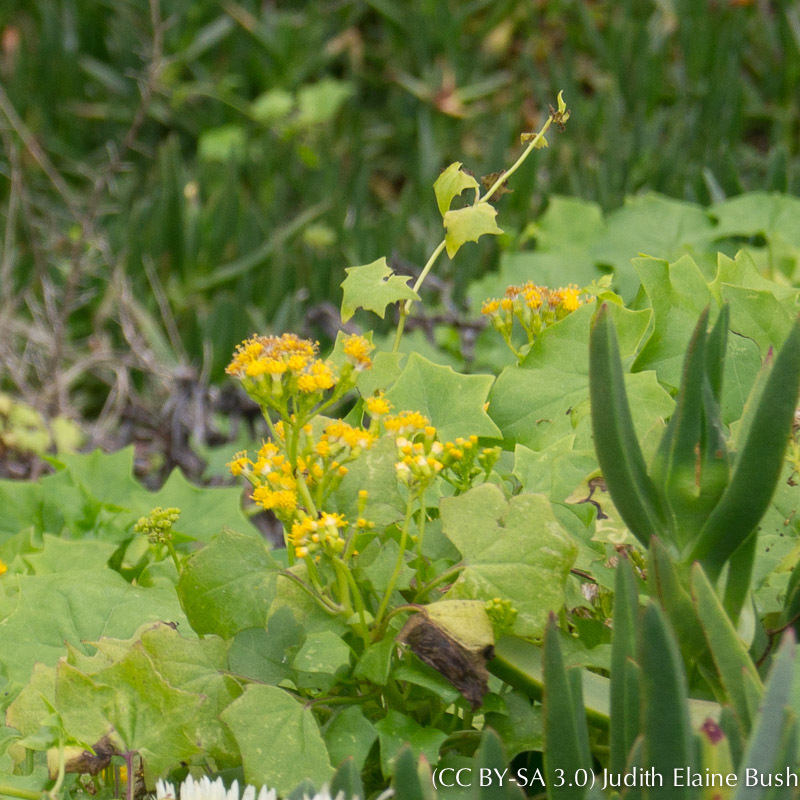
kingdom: Plantae
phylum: Tracheophyta
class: Magnoliopsida
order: Asterales
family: Asteraceae
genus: Delairea
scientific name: Delairea odorata
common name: Cape-ivy
